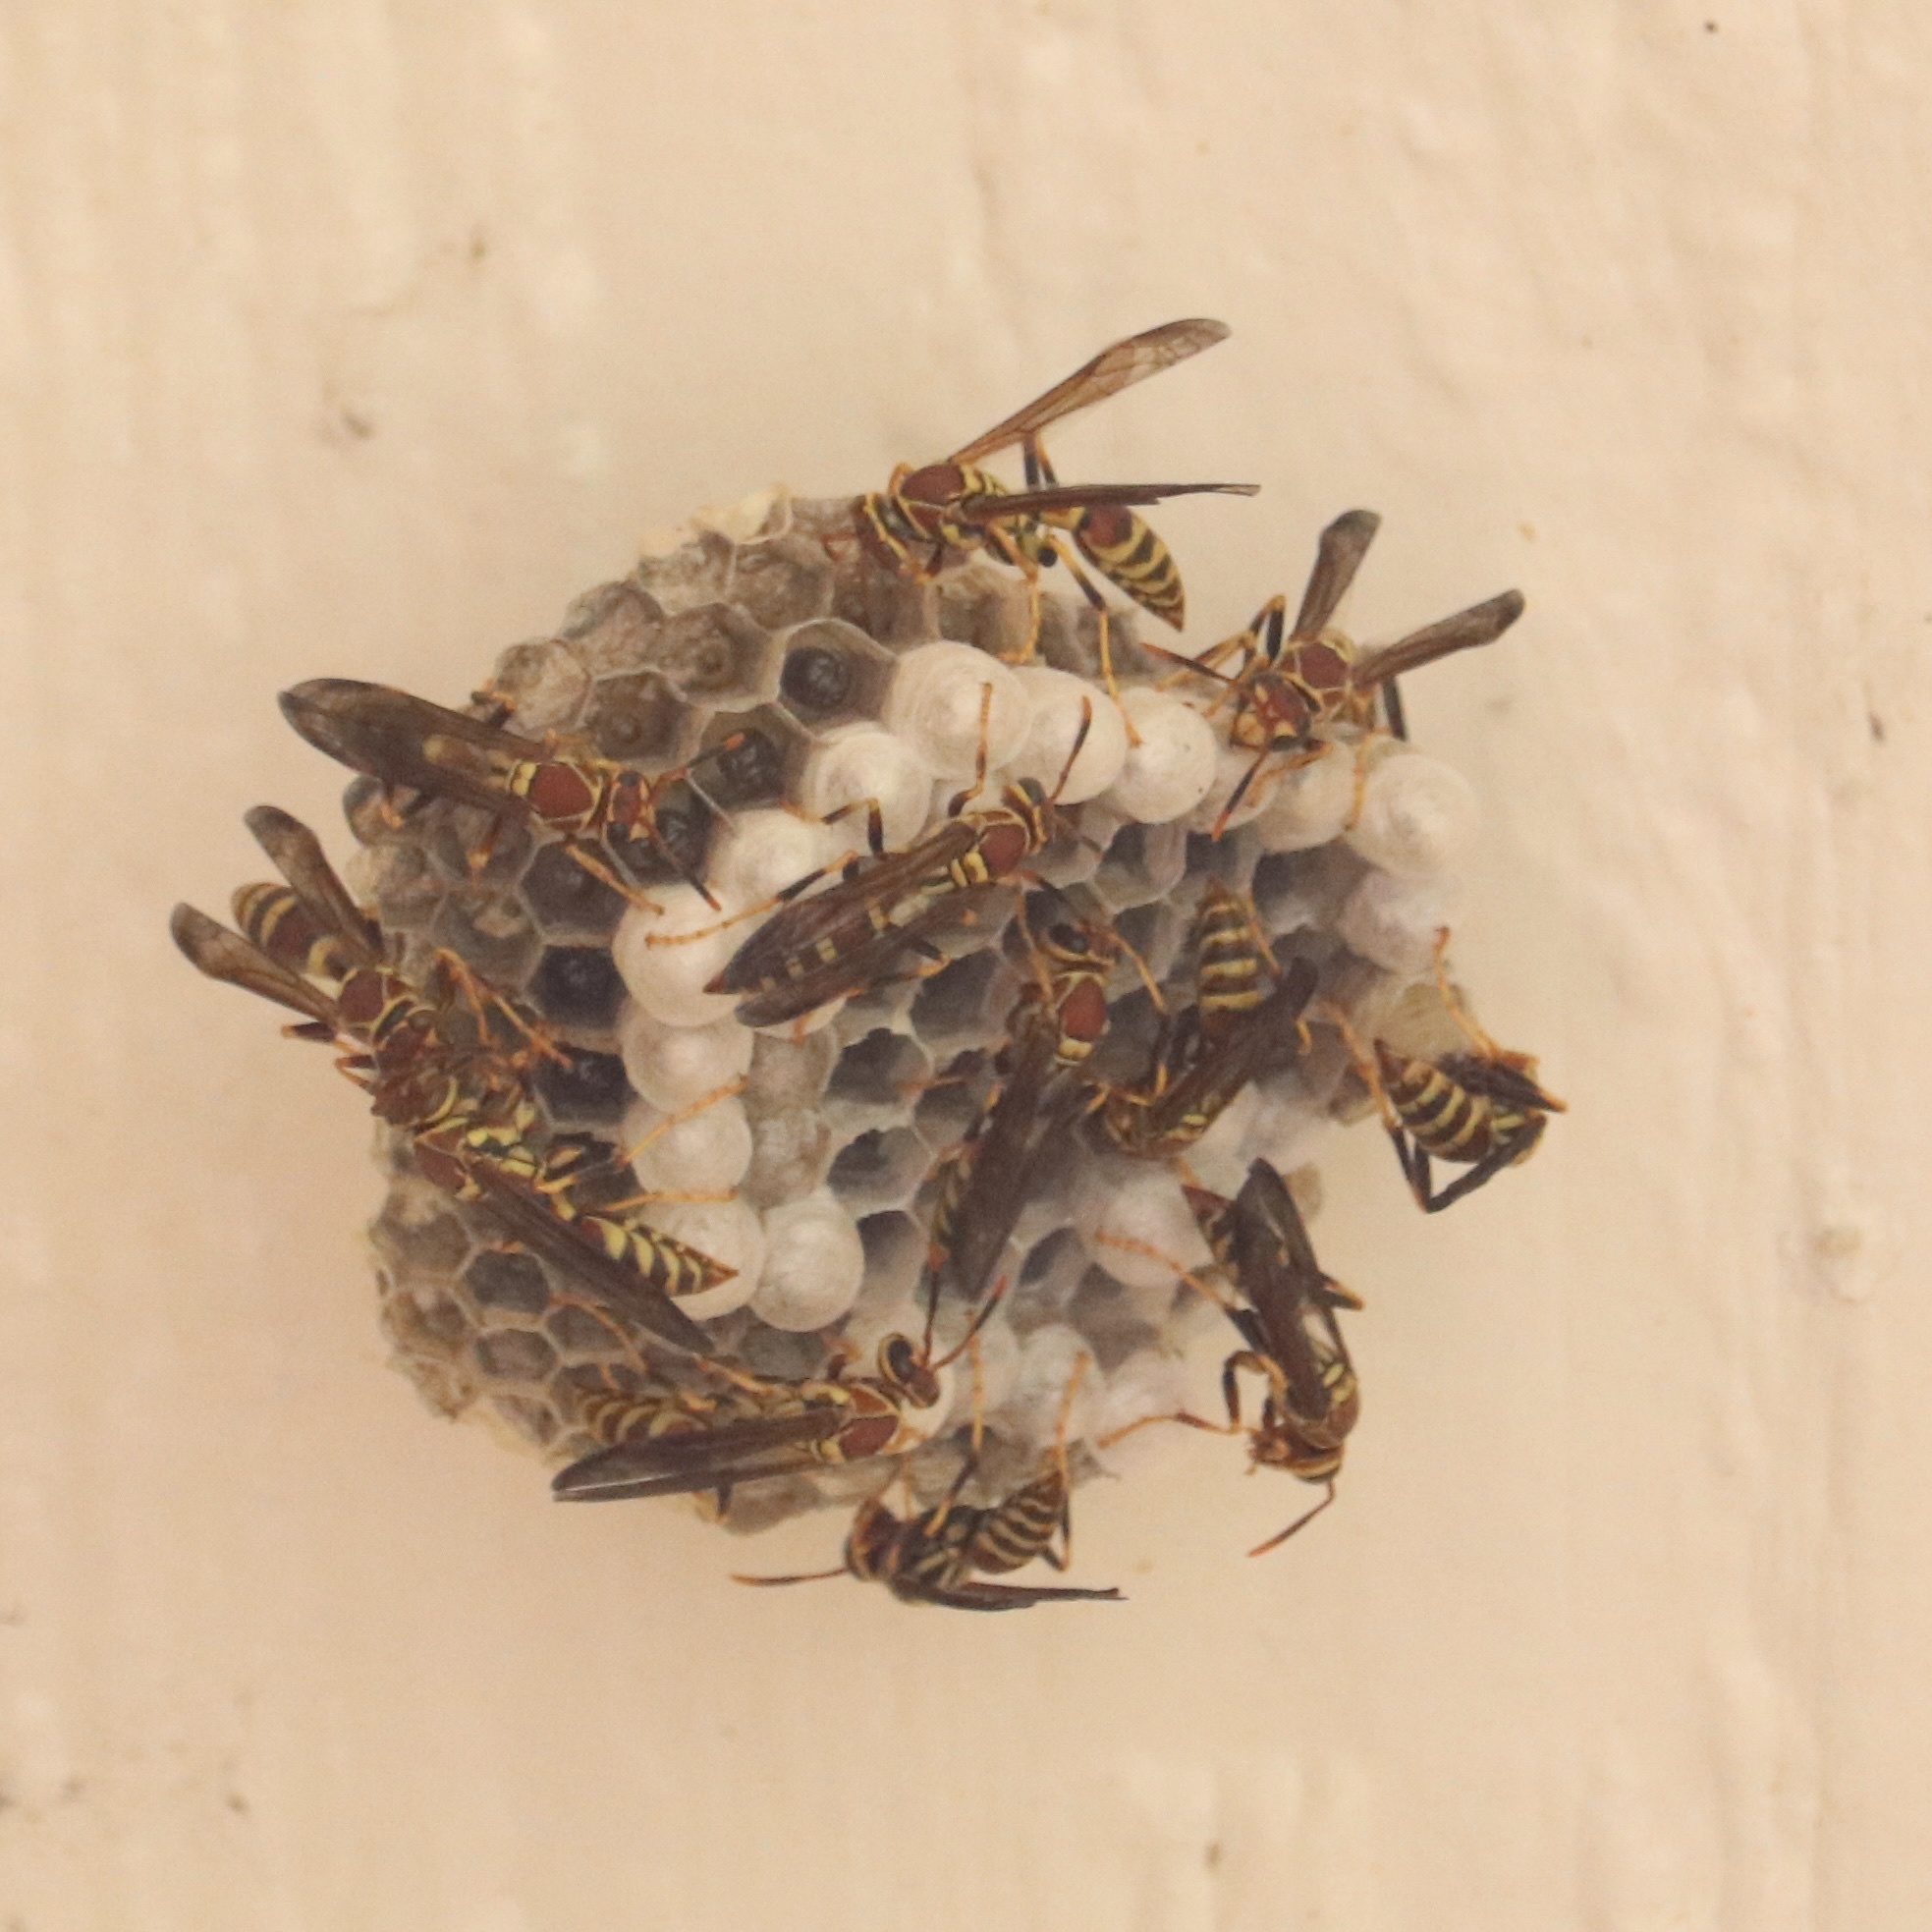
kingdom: Animalia
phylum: Arthropoda
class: Insecta
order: Hymenoptera
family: Eumenidae
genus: Polistes
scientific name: Polistes exclamans
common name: Paper wasp
